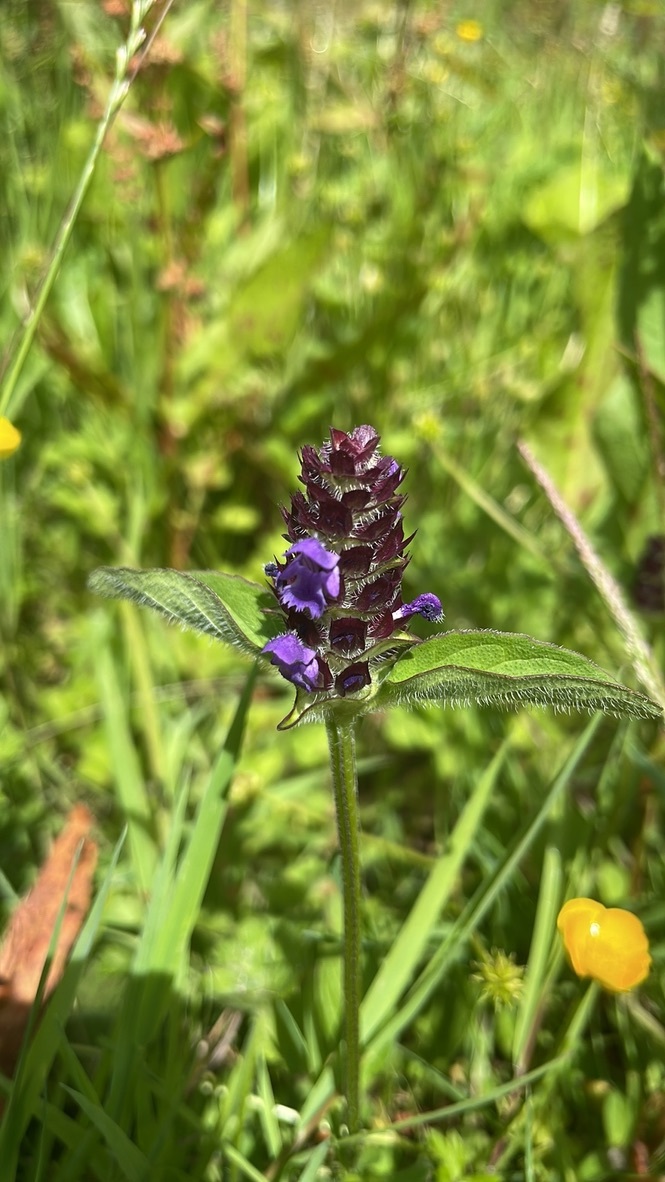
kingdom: Plantae
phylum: Tracheophyta
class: Magnoliopsida
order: Lamiales
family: Lamiaceae
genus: Prunella
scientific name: Prunella vulgaris
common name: Heal-all
